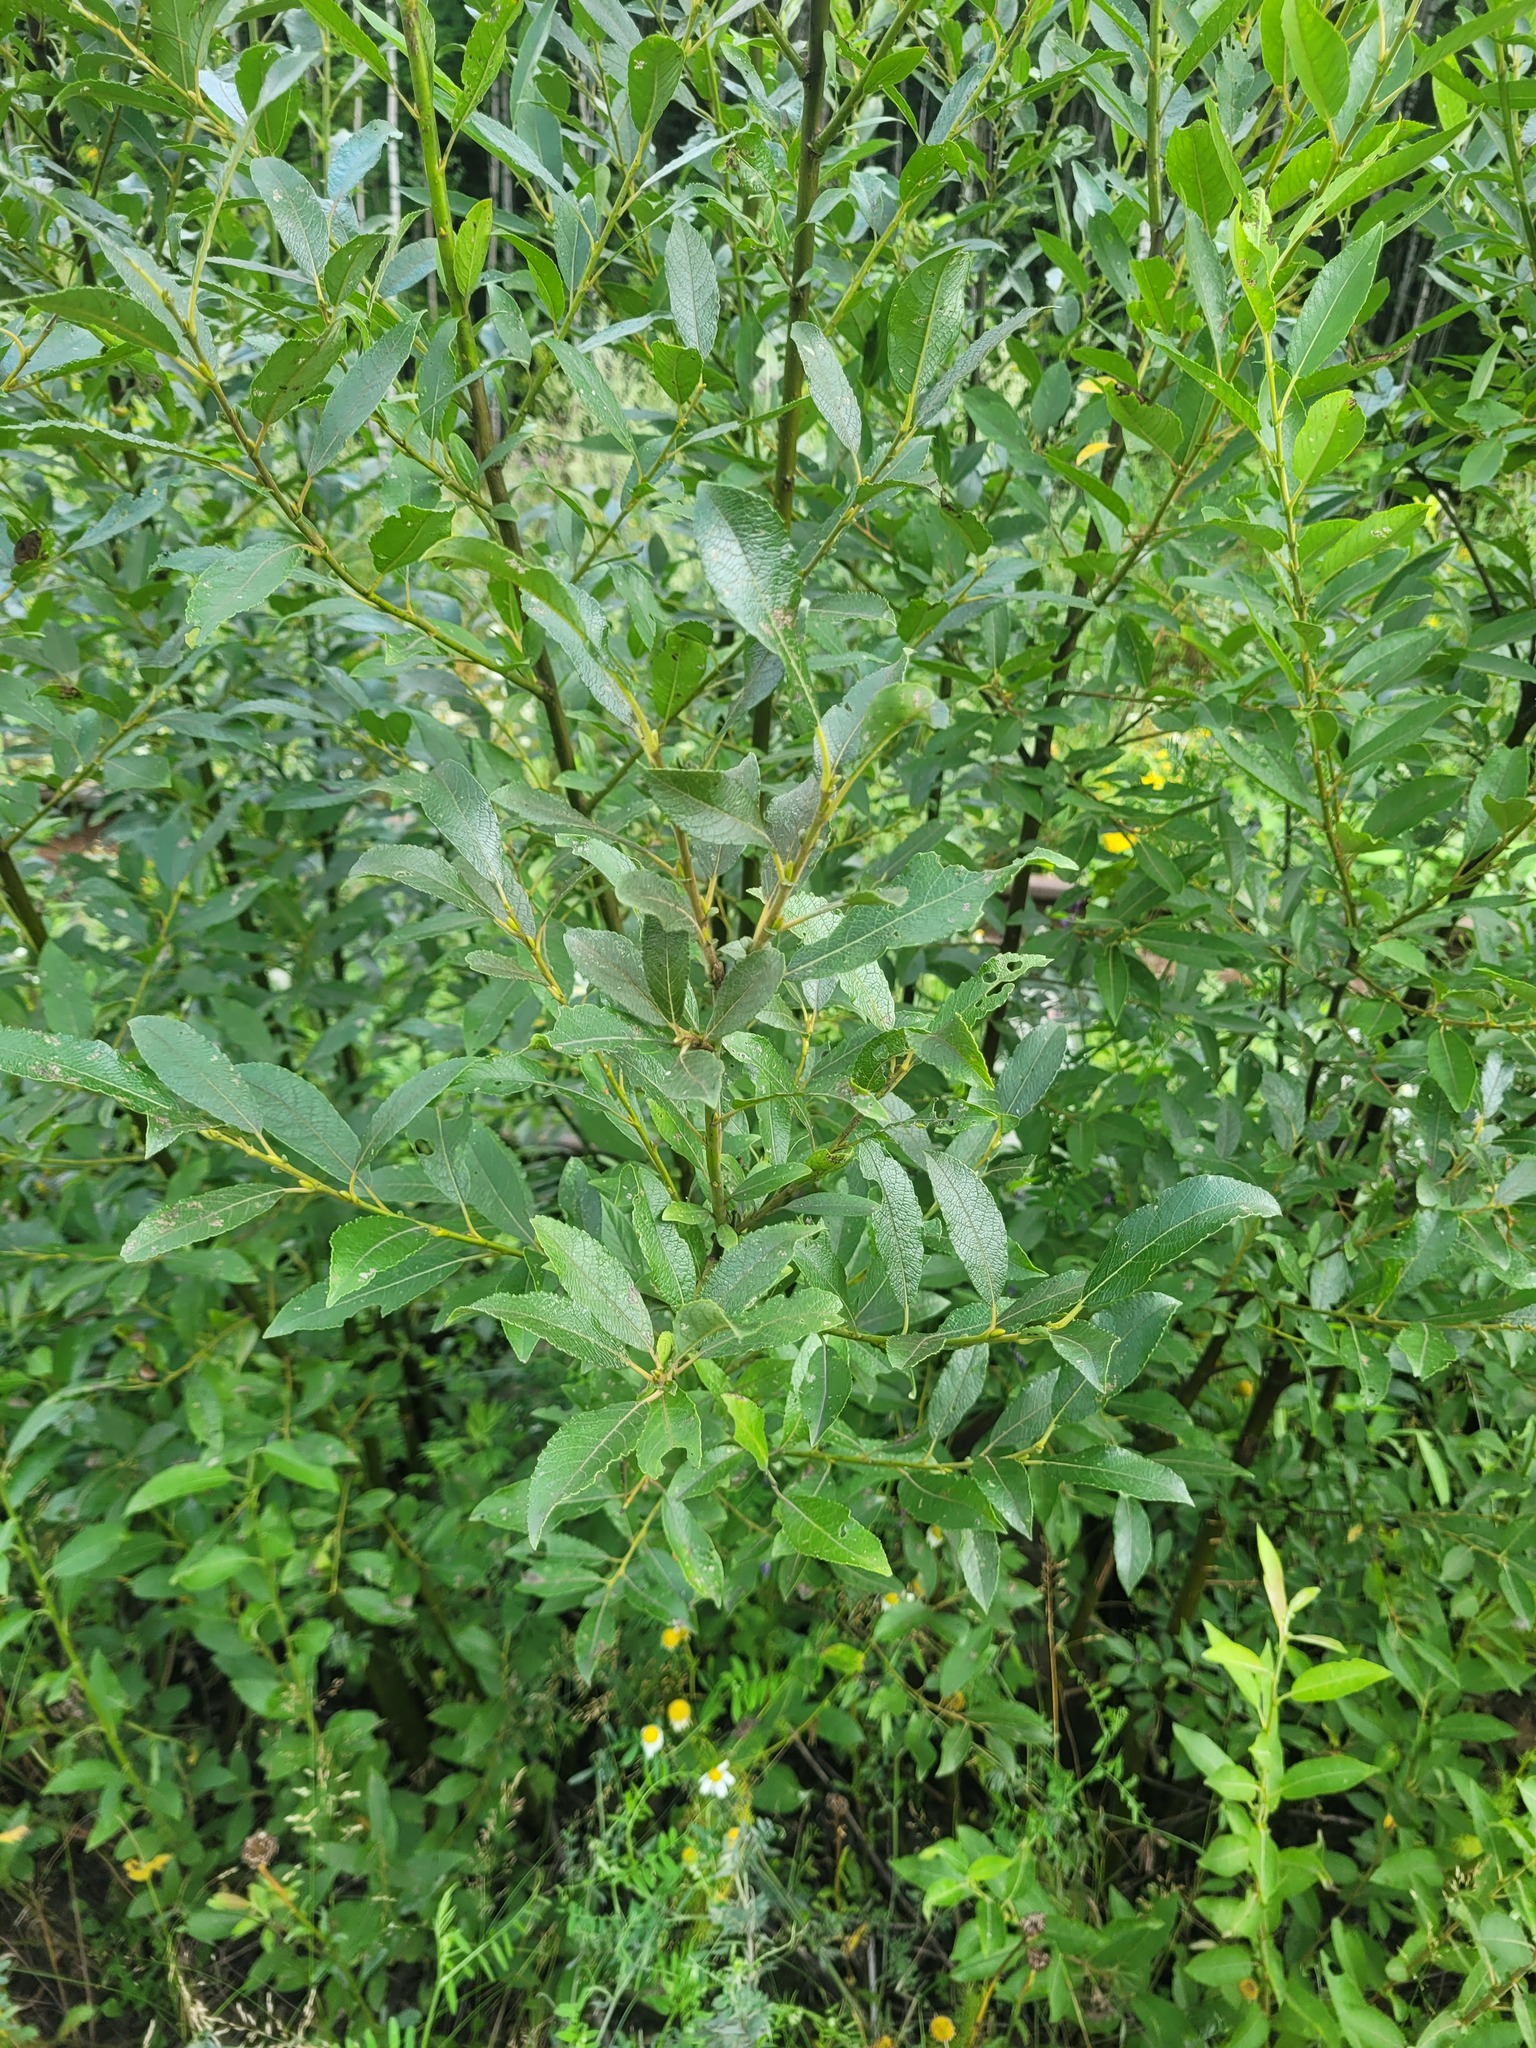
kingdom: Plantae
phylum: Tracheophyta
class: Magnoliopsida
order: Malpighiales
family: Salicaceae
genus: Salix
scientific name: Salix myrsinifolia
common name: Dark-leaved willow
